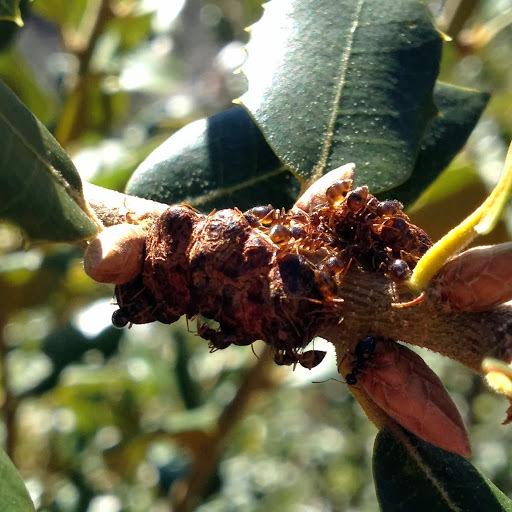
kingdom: Animalia
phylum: Arthropoda
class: Insecta
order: Hymenoptera
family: Formicidae
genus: Prenolepis
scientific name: Prenolepis imparis
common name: Small honey ant
